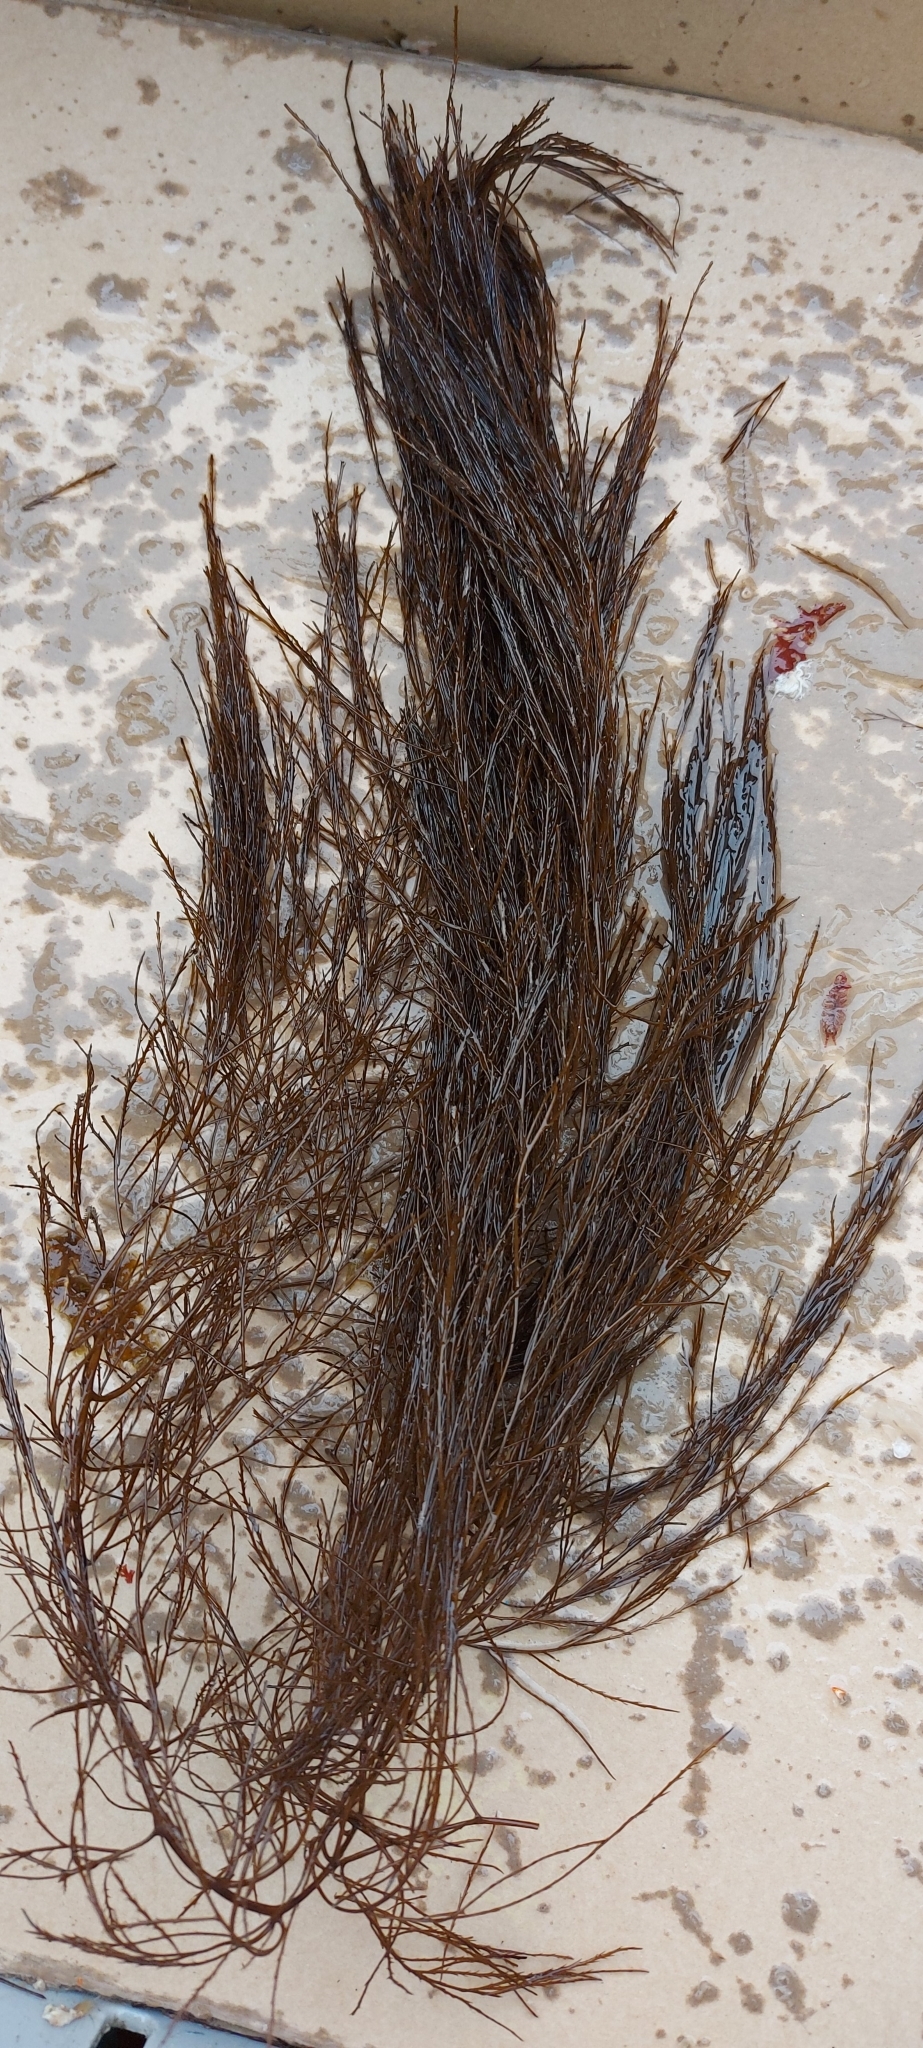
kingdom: Chromista
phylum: Ochrophyta
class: Phaeophyceae
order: Desmarestiales
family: Desmarestiaceae
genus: Desmarestia
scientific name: Desmarestia aculeata
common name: Witch's hair
